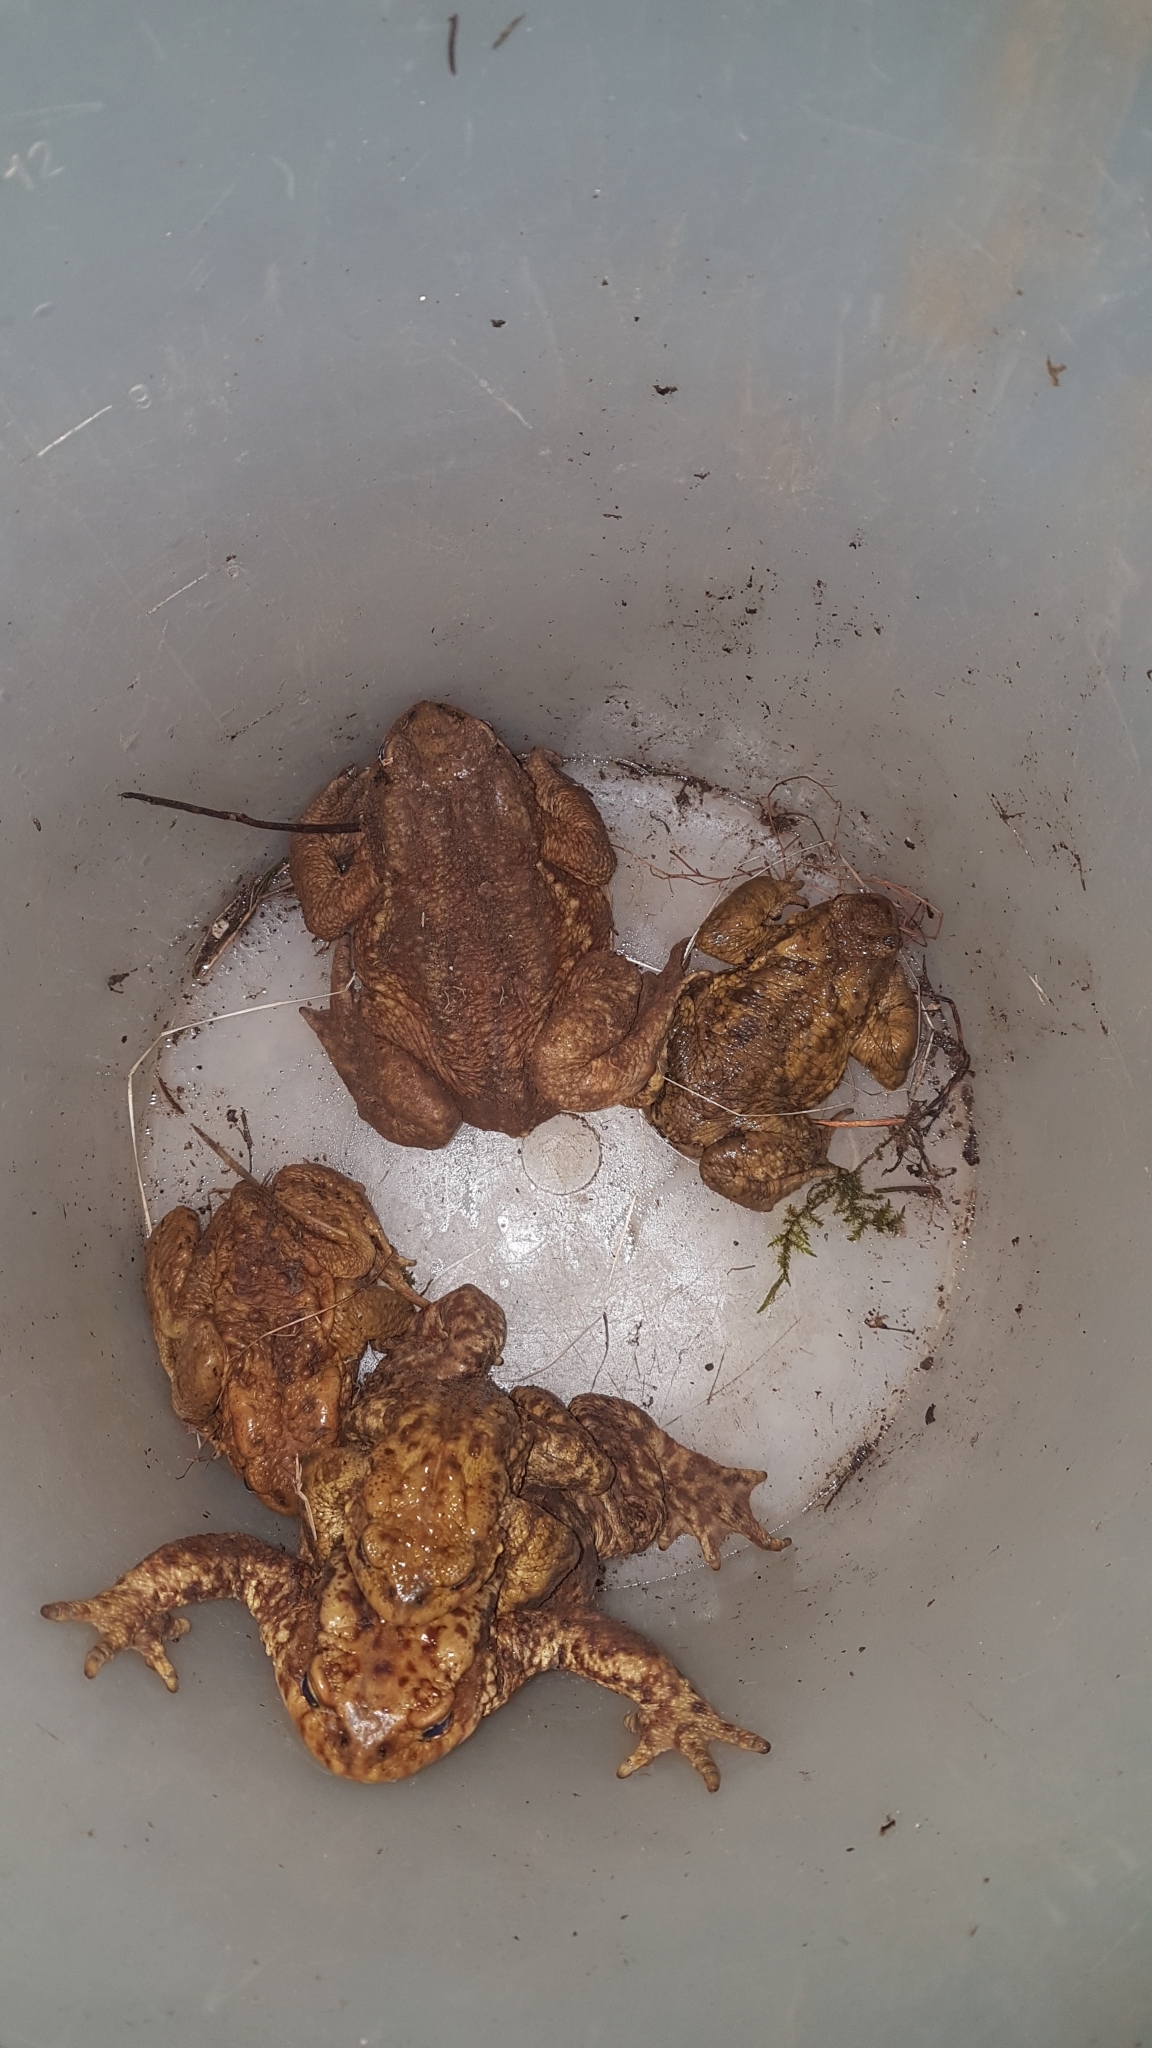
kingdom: Animalia
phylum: Chordata
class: Amphibia
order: Anura
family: Bufonidae
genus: Bufo
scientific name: Bufo bufo
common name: Common toad
